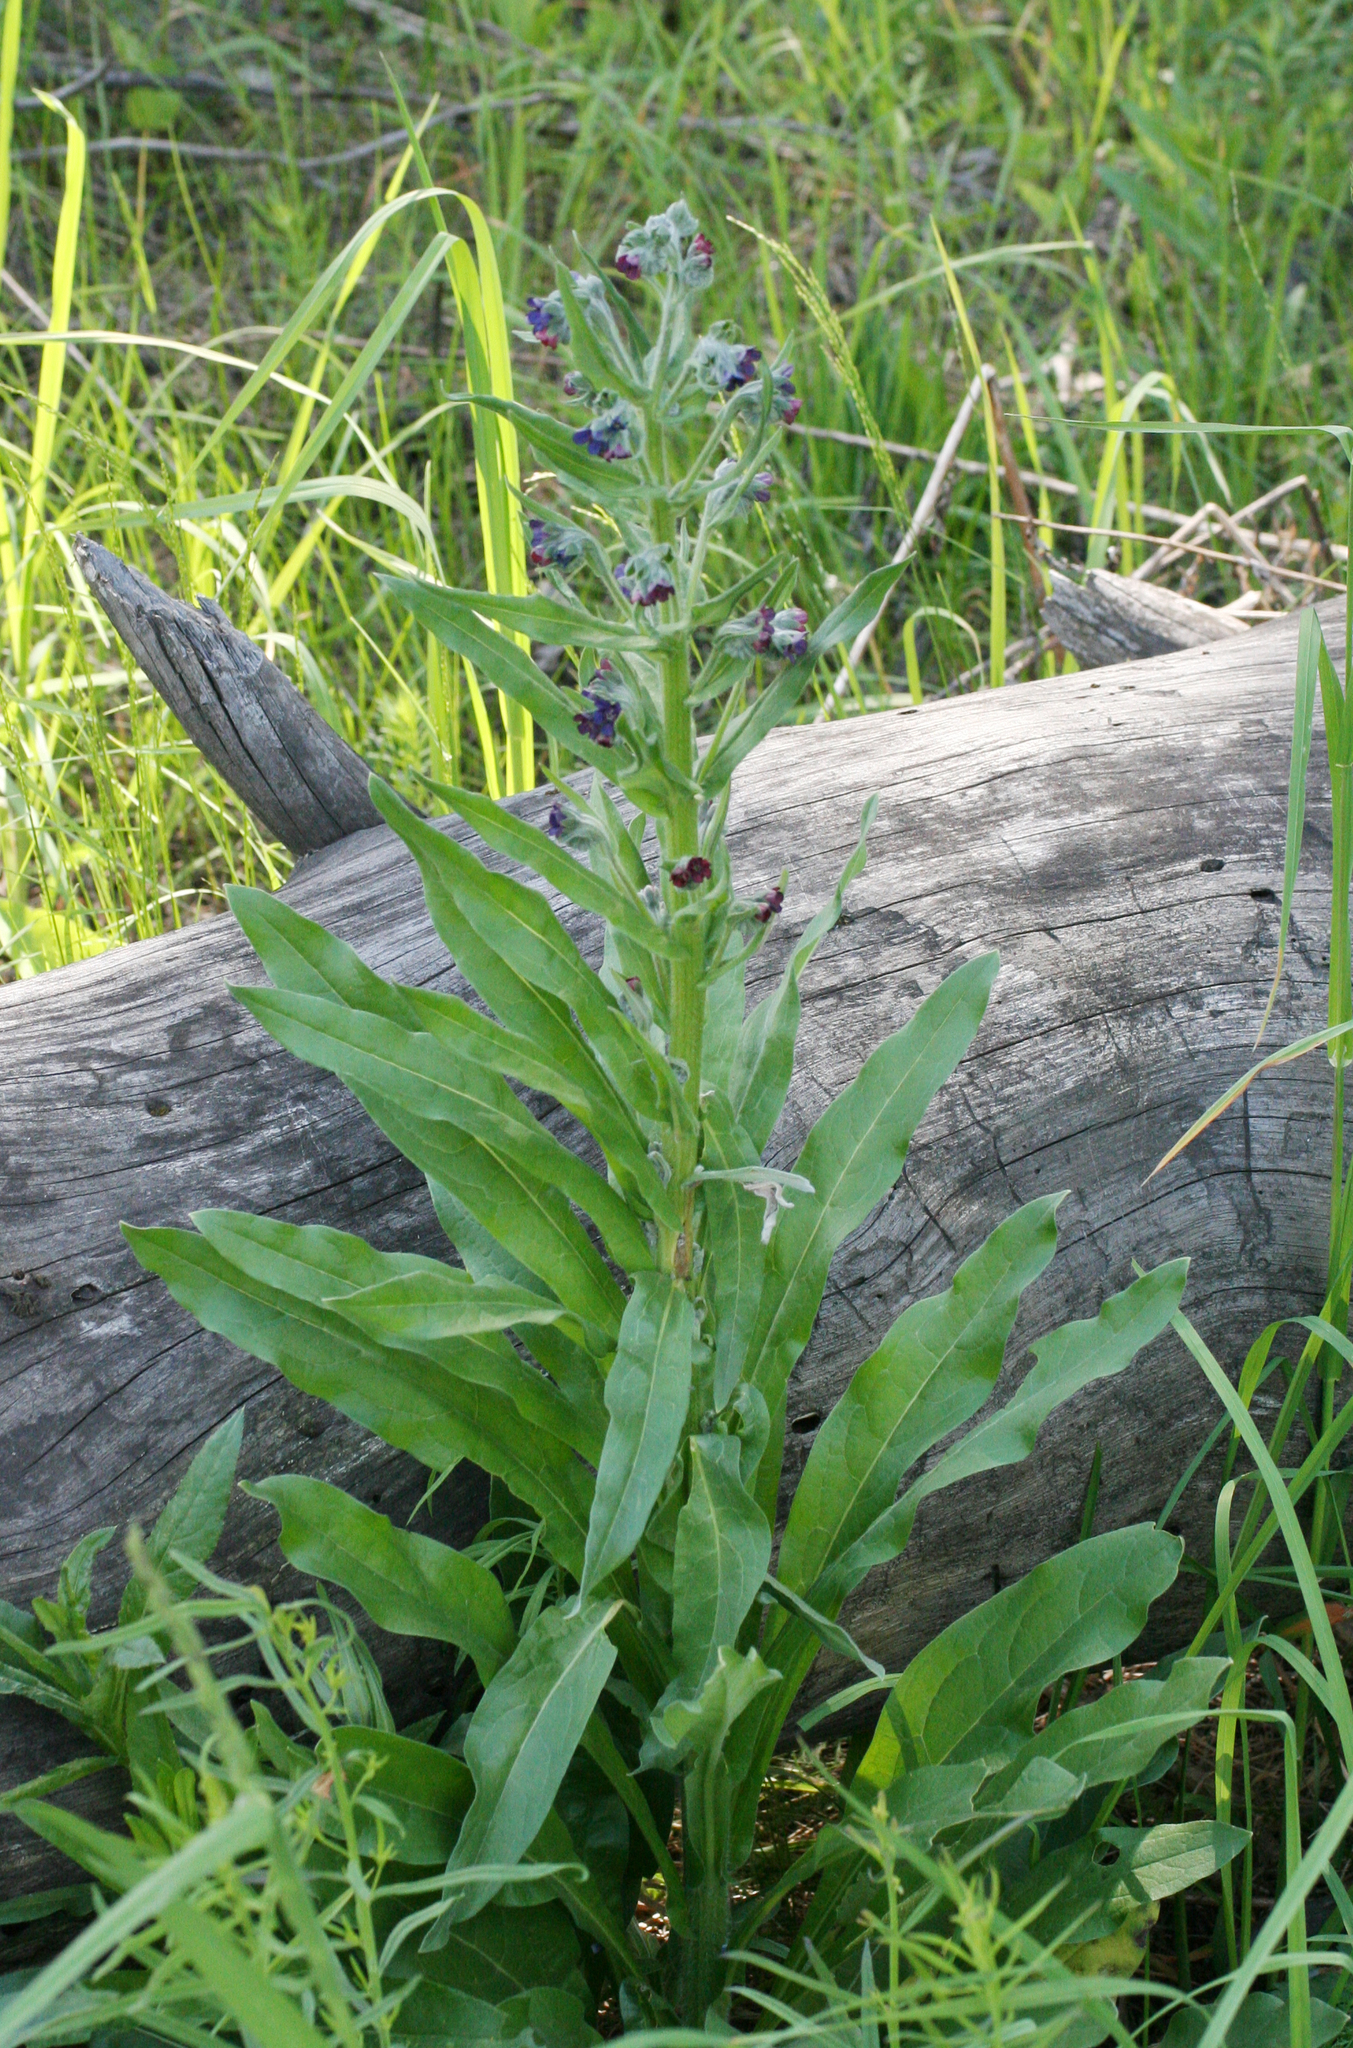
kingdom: Plantae
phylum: Tracheophyta
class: Magnoliopsida
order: Boraginales
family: Boraginaceae
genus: Cynoglossum
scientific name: Cynoglossum officinale
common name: Hound's-tongue
